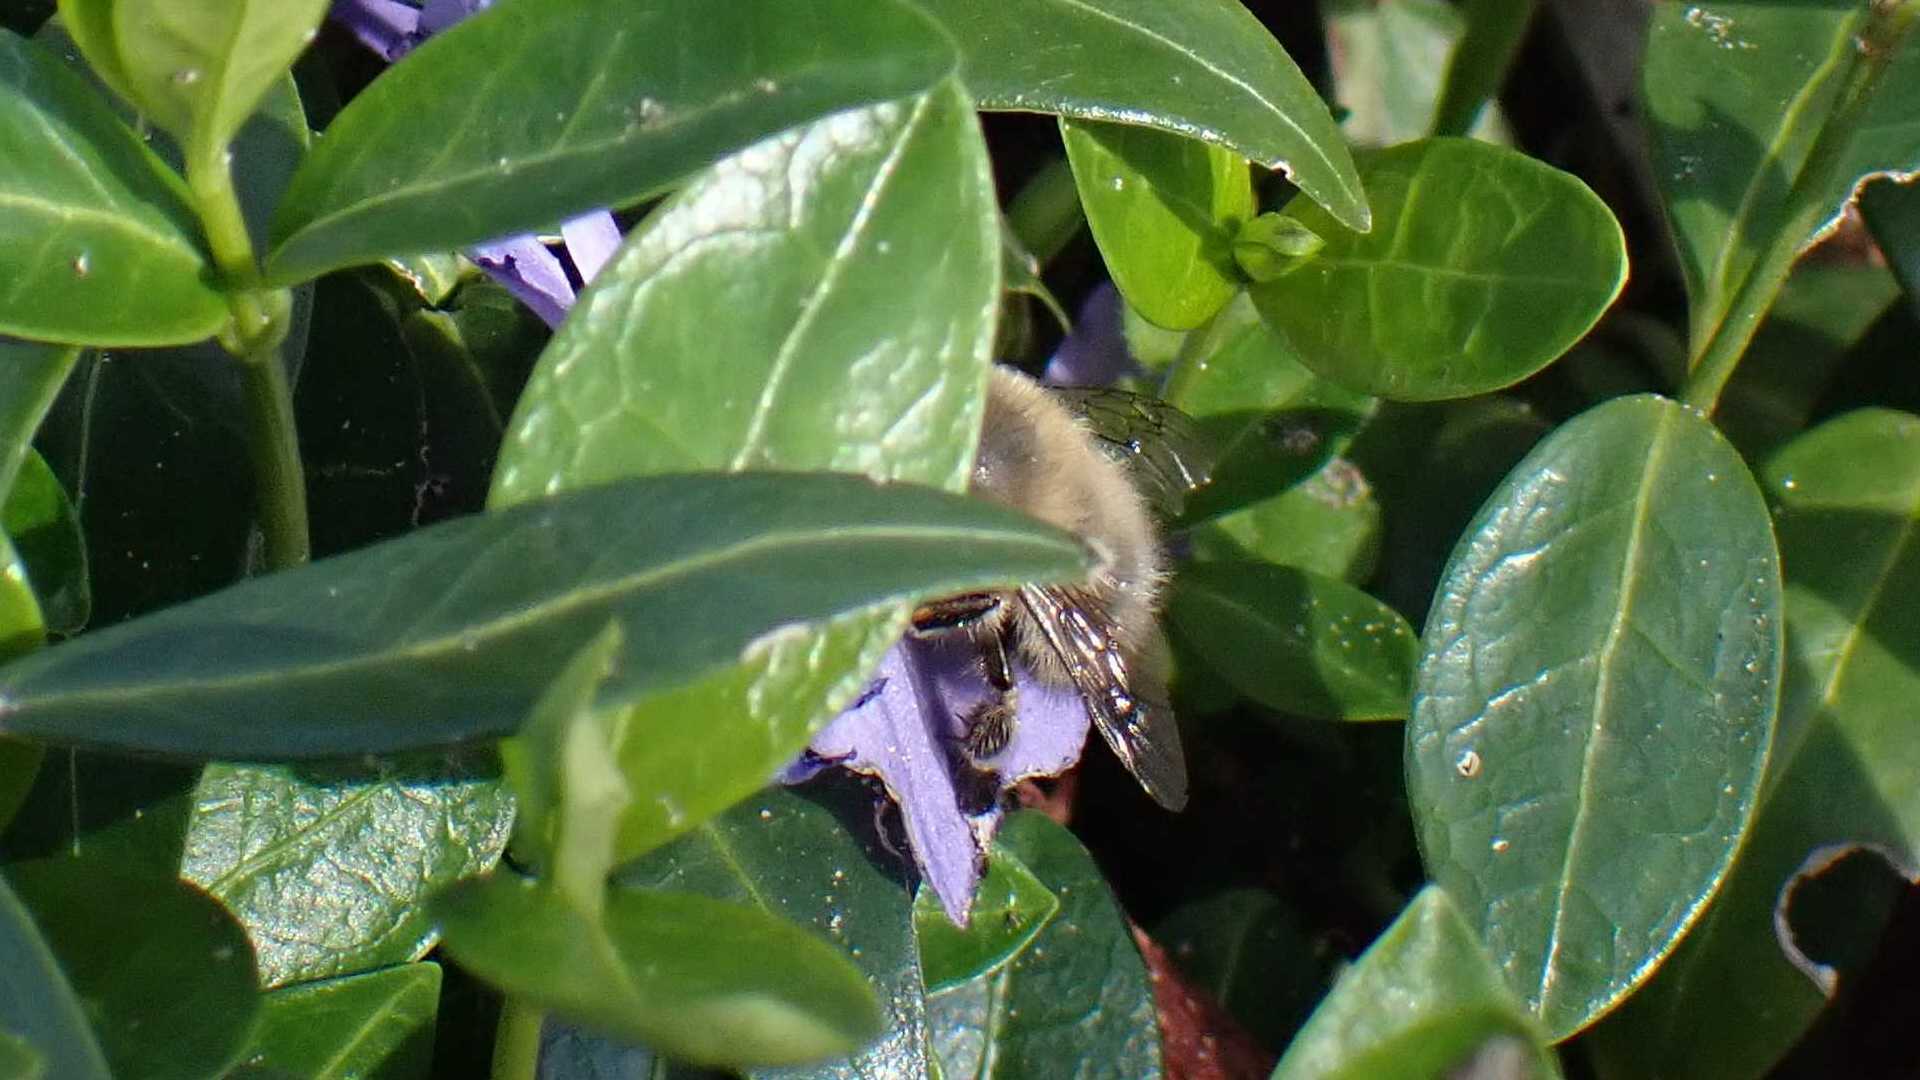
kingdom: Animalia
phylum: Arthropoda
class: Insecta
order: Hymenoptera
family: Apidae
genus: Anthophora
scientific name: Anthophora plumipes
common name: Hairy-footed flower bee
